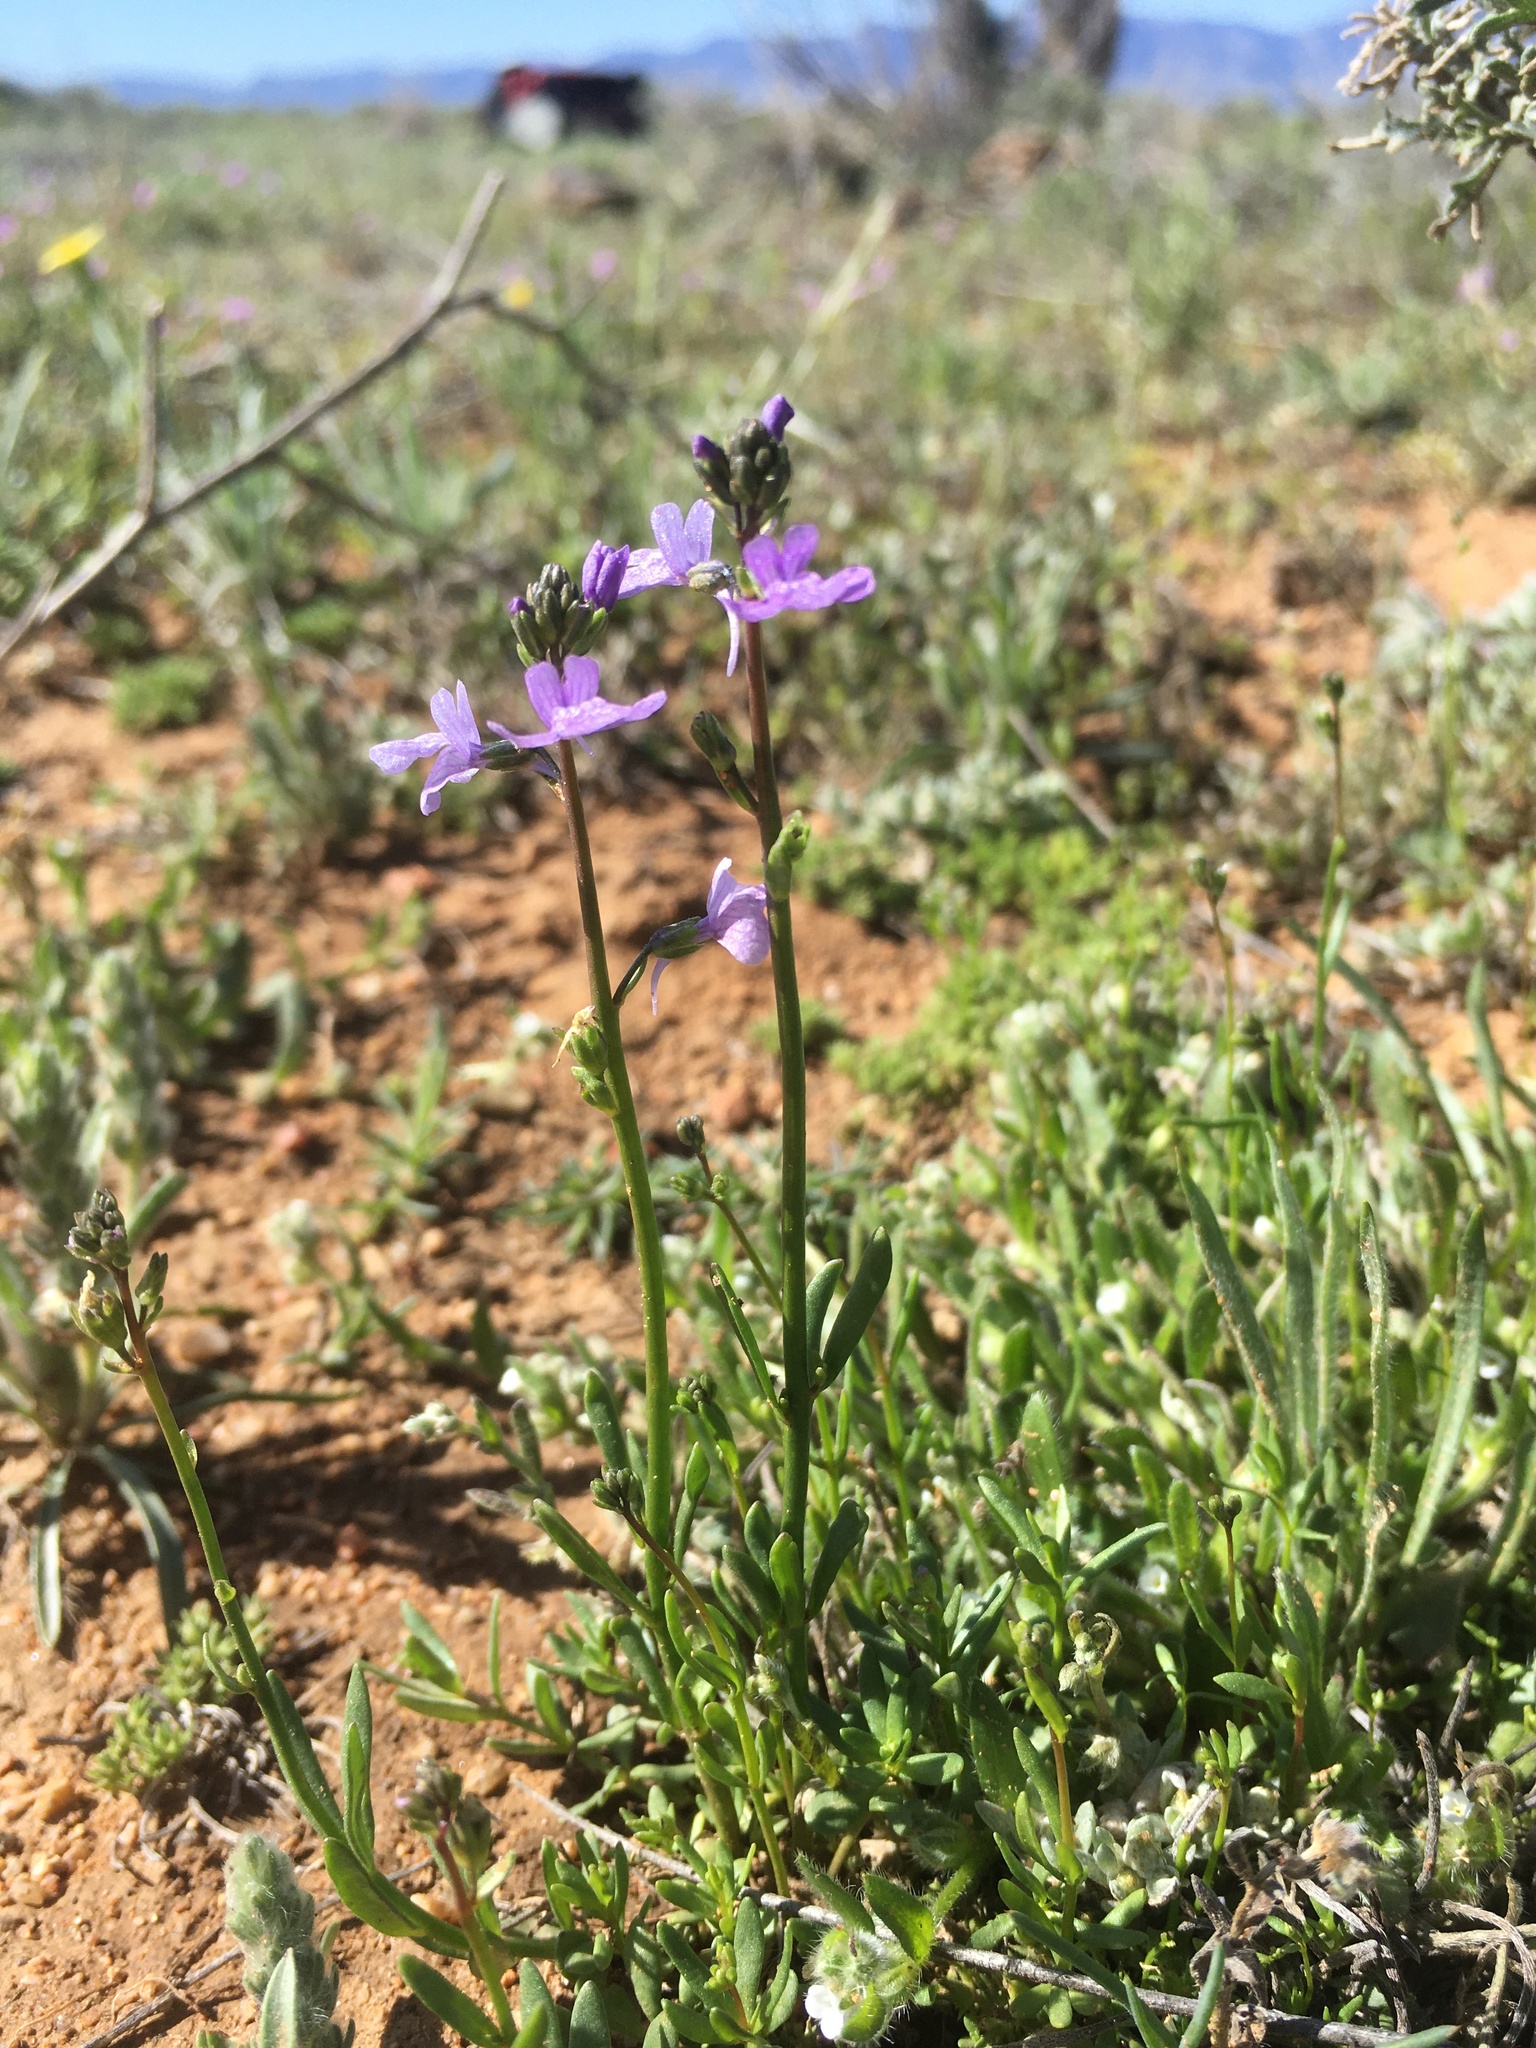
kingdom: Plantae
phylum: Tracheophyta
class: Magnoliopsida
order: Lamiales
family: Plantaginaceae
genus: Nuttallanthus
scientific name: Nuttallanthus texanus
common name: Texas toadflax
